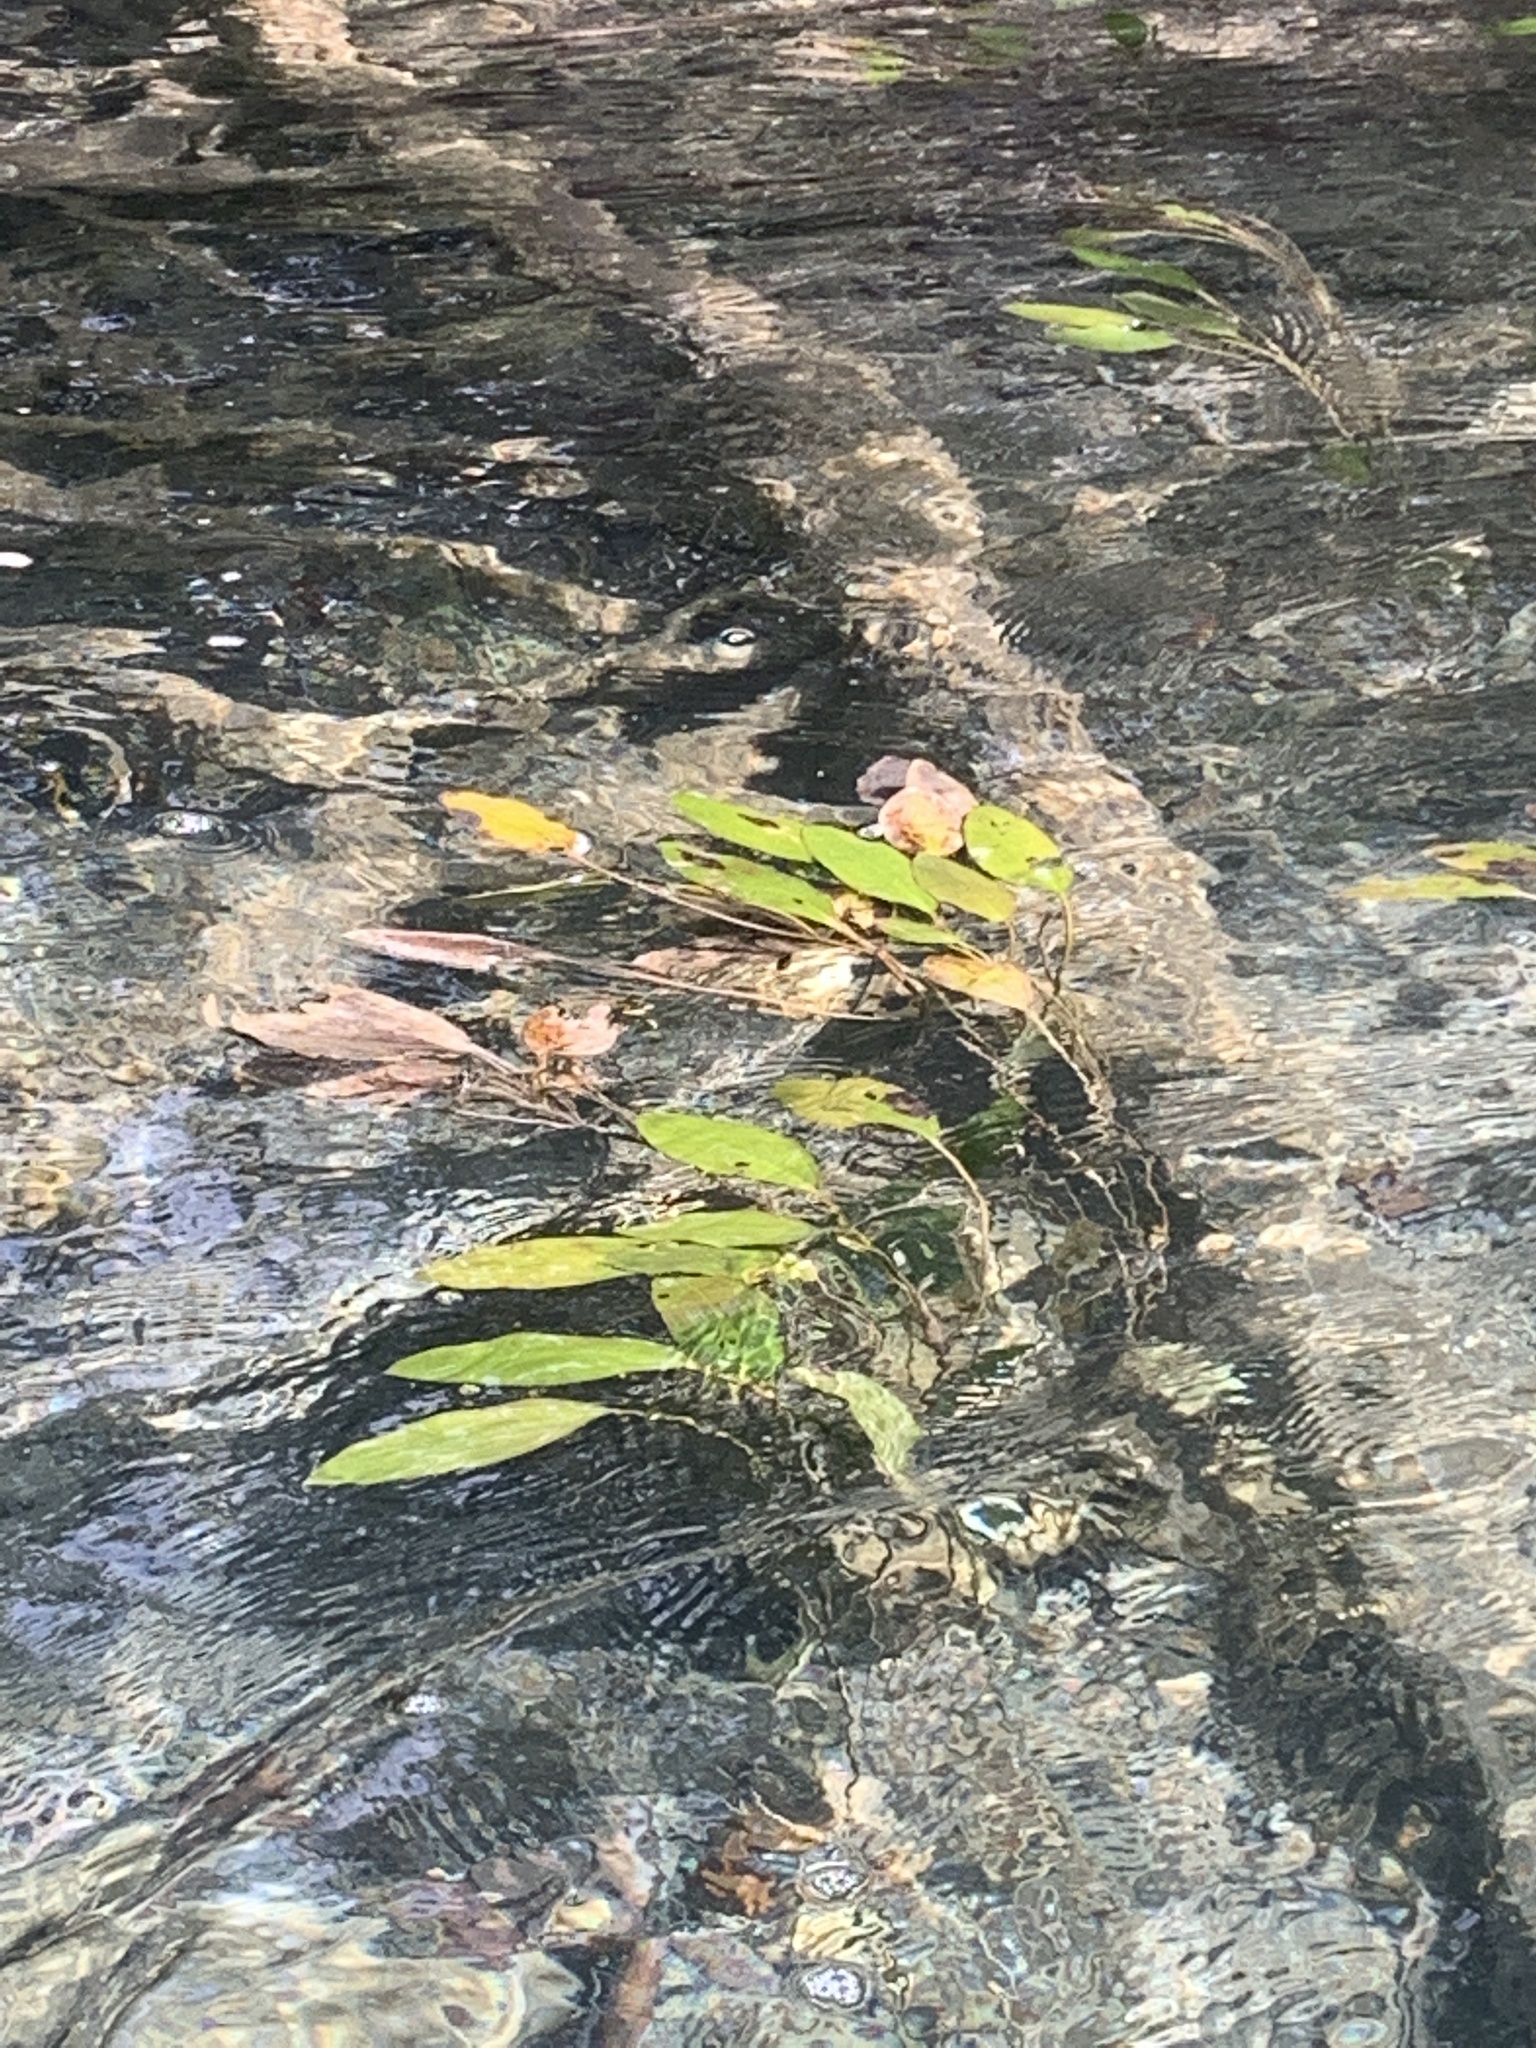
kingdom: Plantae
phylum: Tracheophyta
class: Liliopsida
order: Alismatales
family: Potamogetonaceae
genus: Potamogeton
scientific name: Potamogeton nodosus
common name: Loddon pondweed
